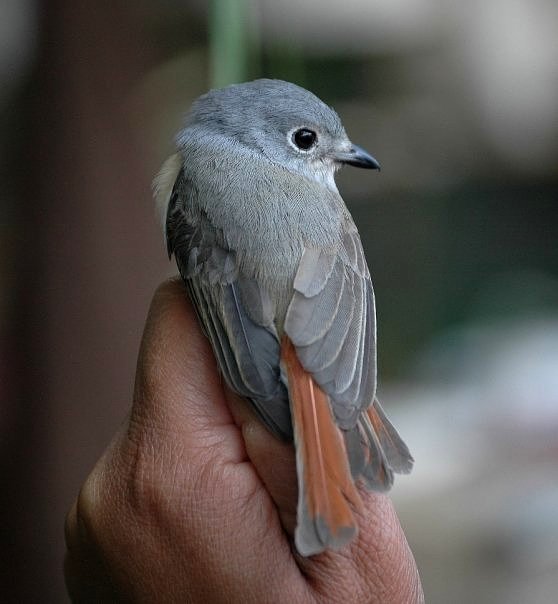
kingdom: Animalia
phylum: Chordata
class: Aves
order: Passeriformes
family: Vangidae
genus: Calicalicus
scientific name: Calicalicus madagascariensis
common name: Red-tailed vanga
